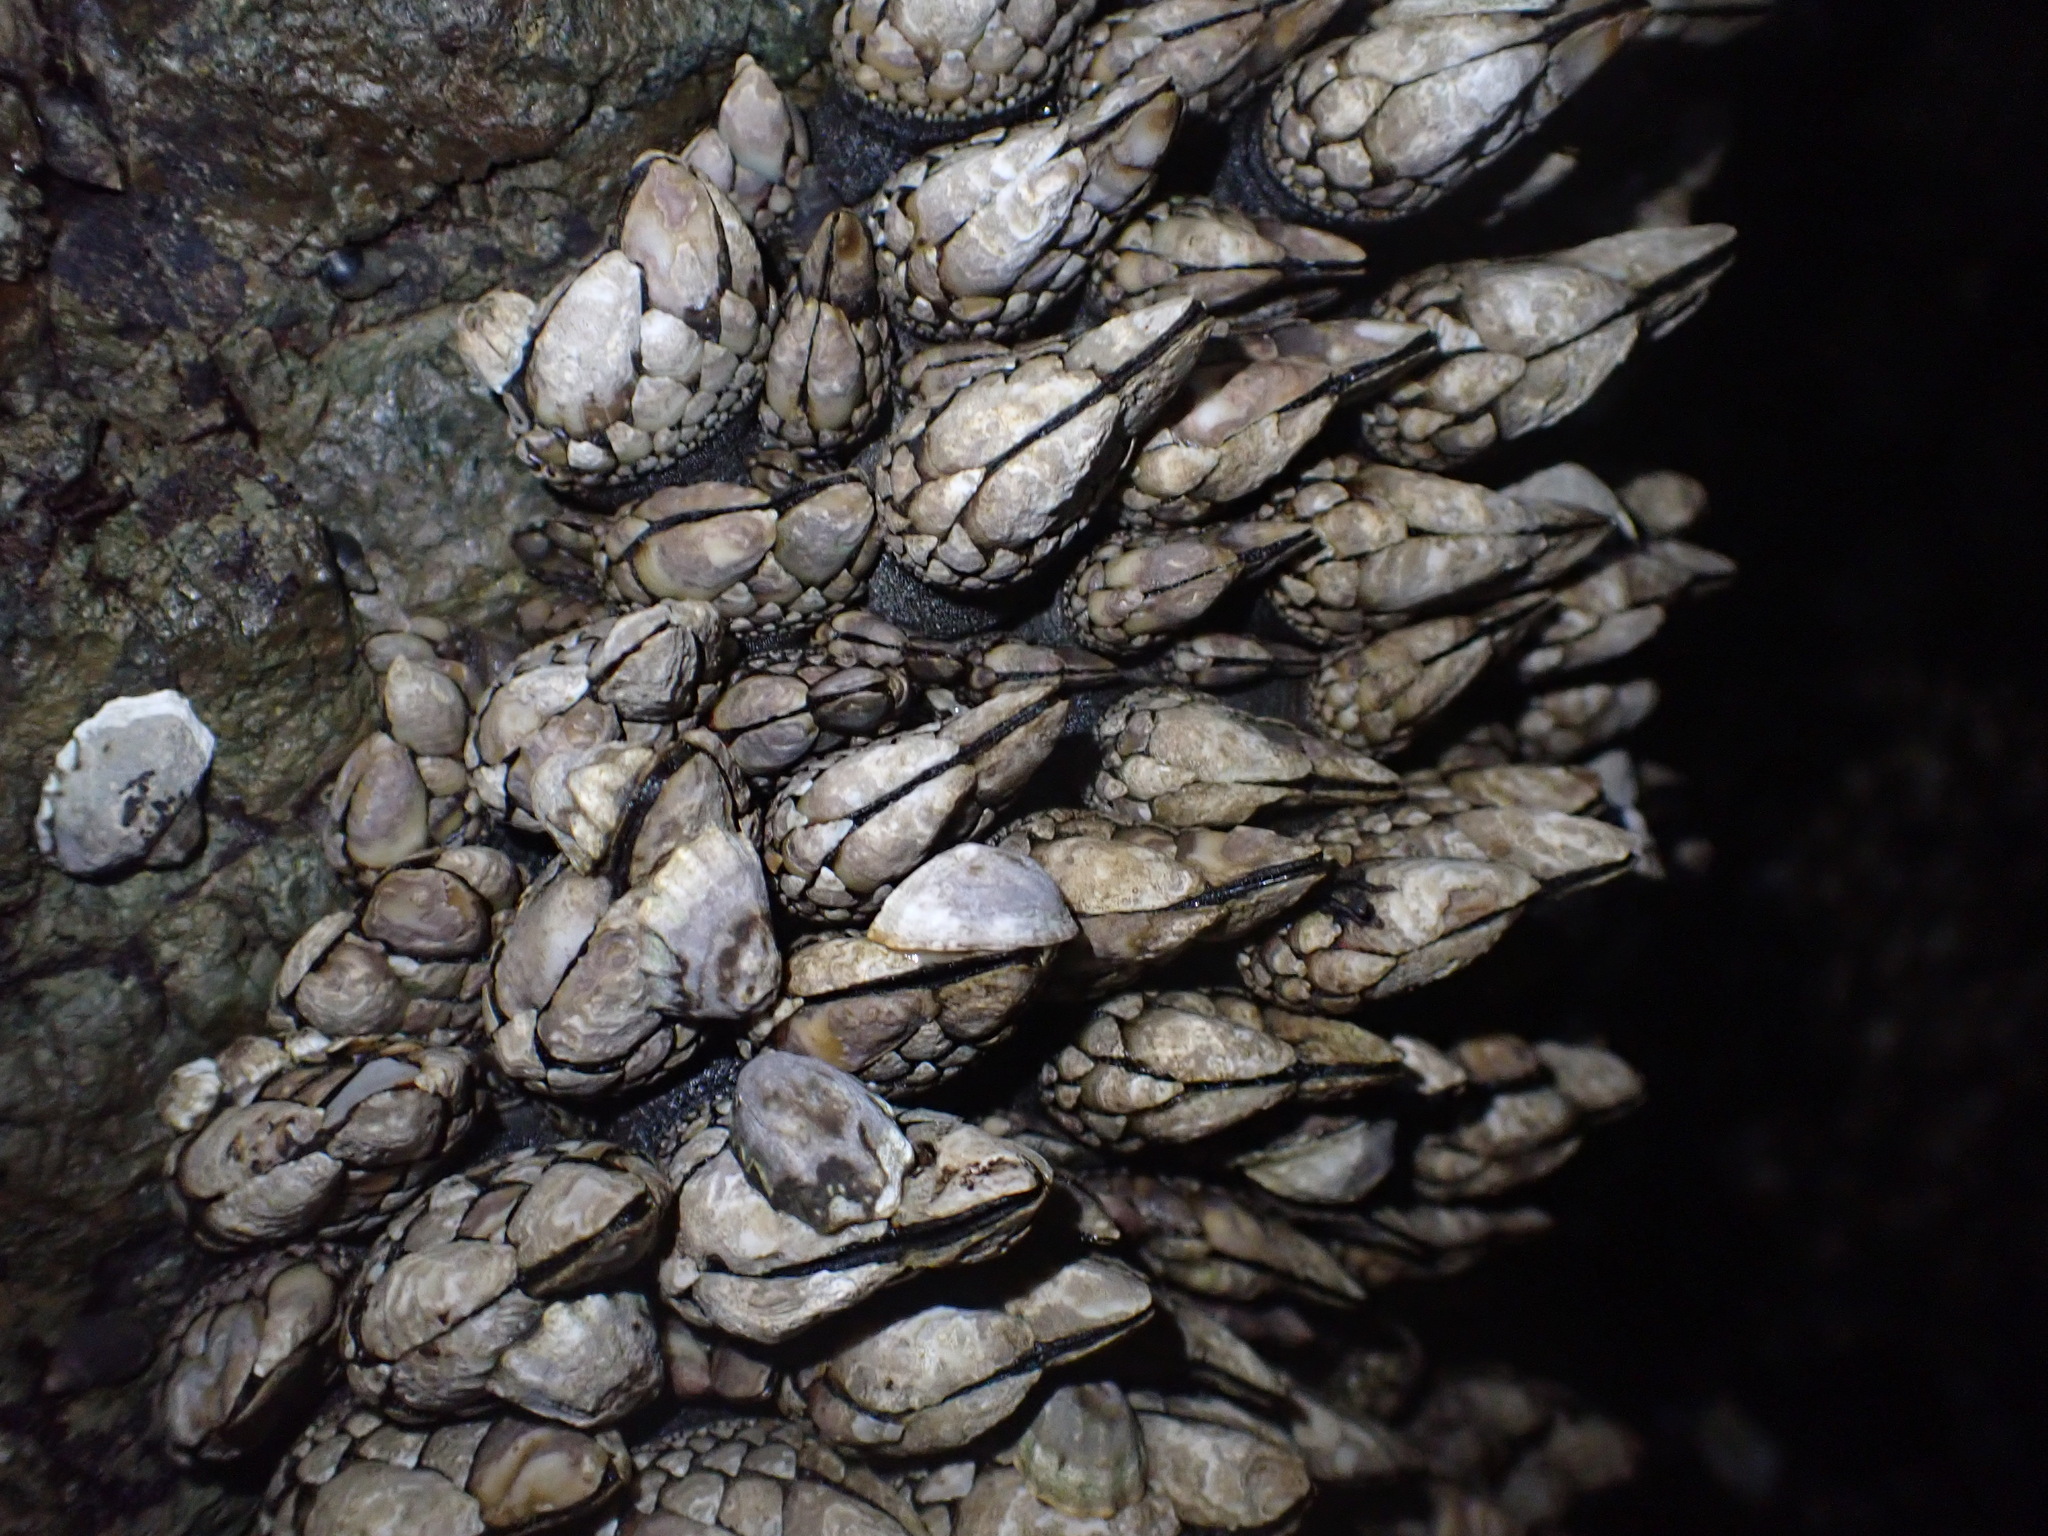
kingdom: Animalia
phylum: Arthropoda
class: Maxillopoda
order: Pedunculata
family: Pollicipedidae
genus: Pollicipes
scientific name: Pollicipes polymerus
